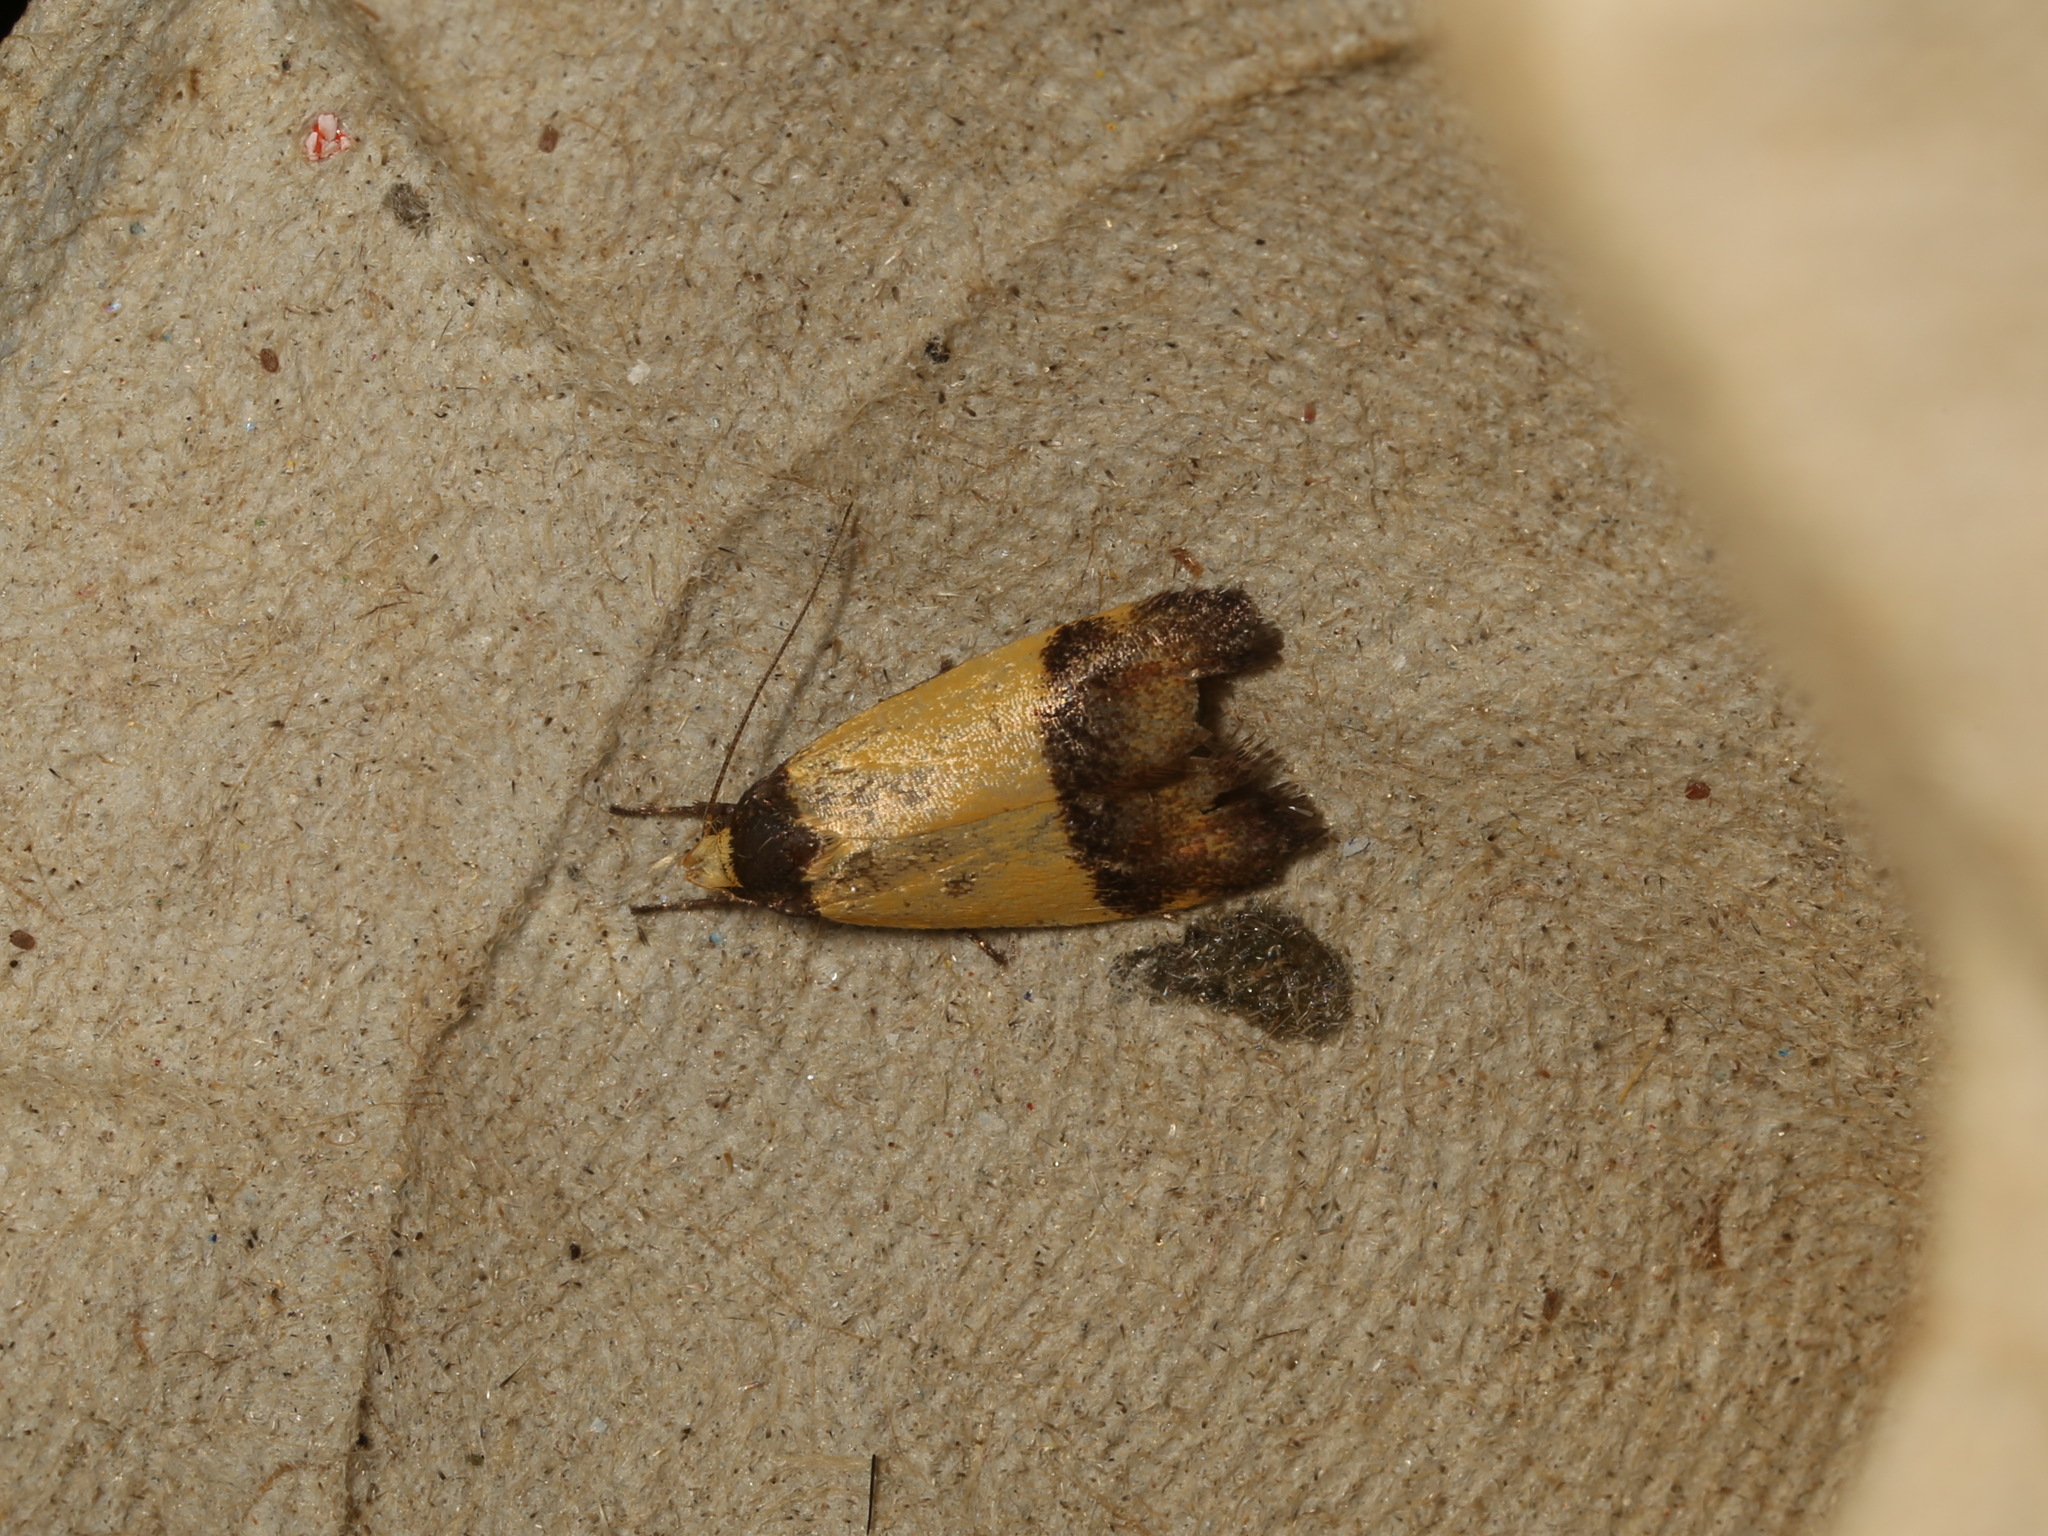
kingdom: Animalia
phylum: Arthropoda
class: Insecta
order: Lepidoptera
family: Oecophoridae
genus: Heteroteucha
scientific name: Heteroteucha kershawi
